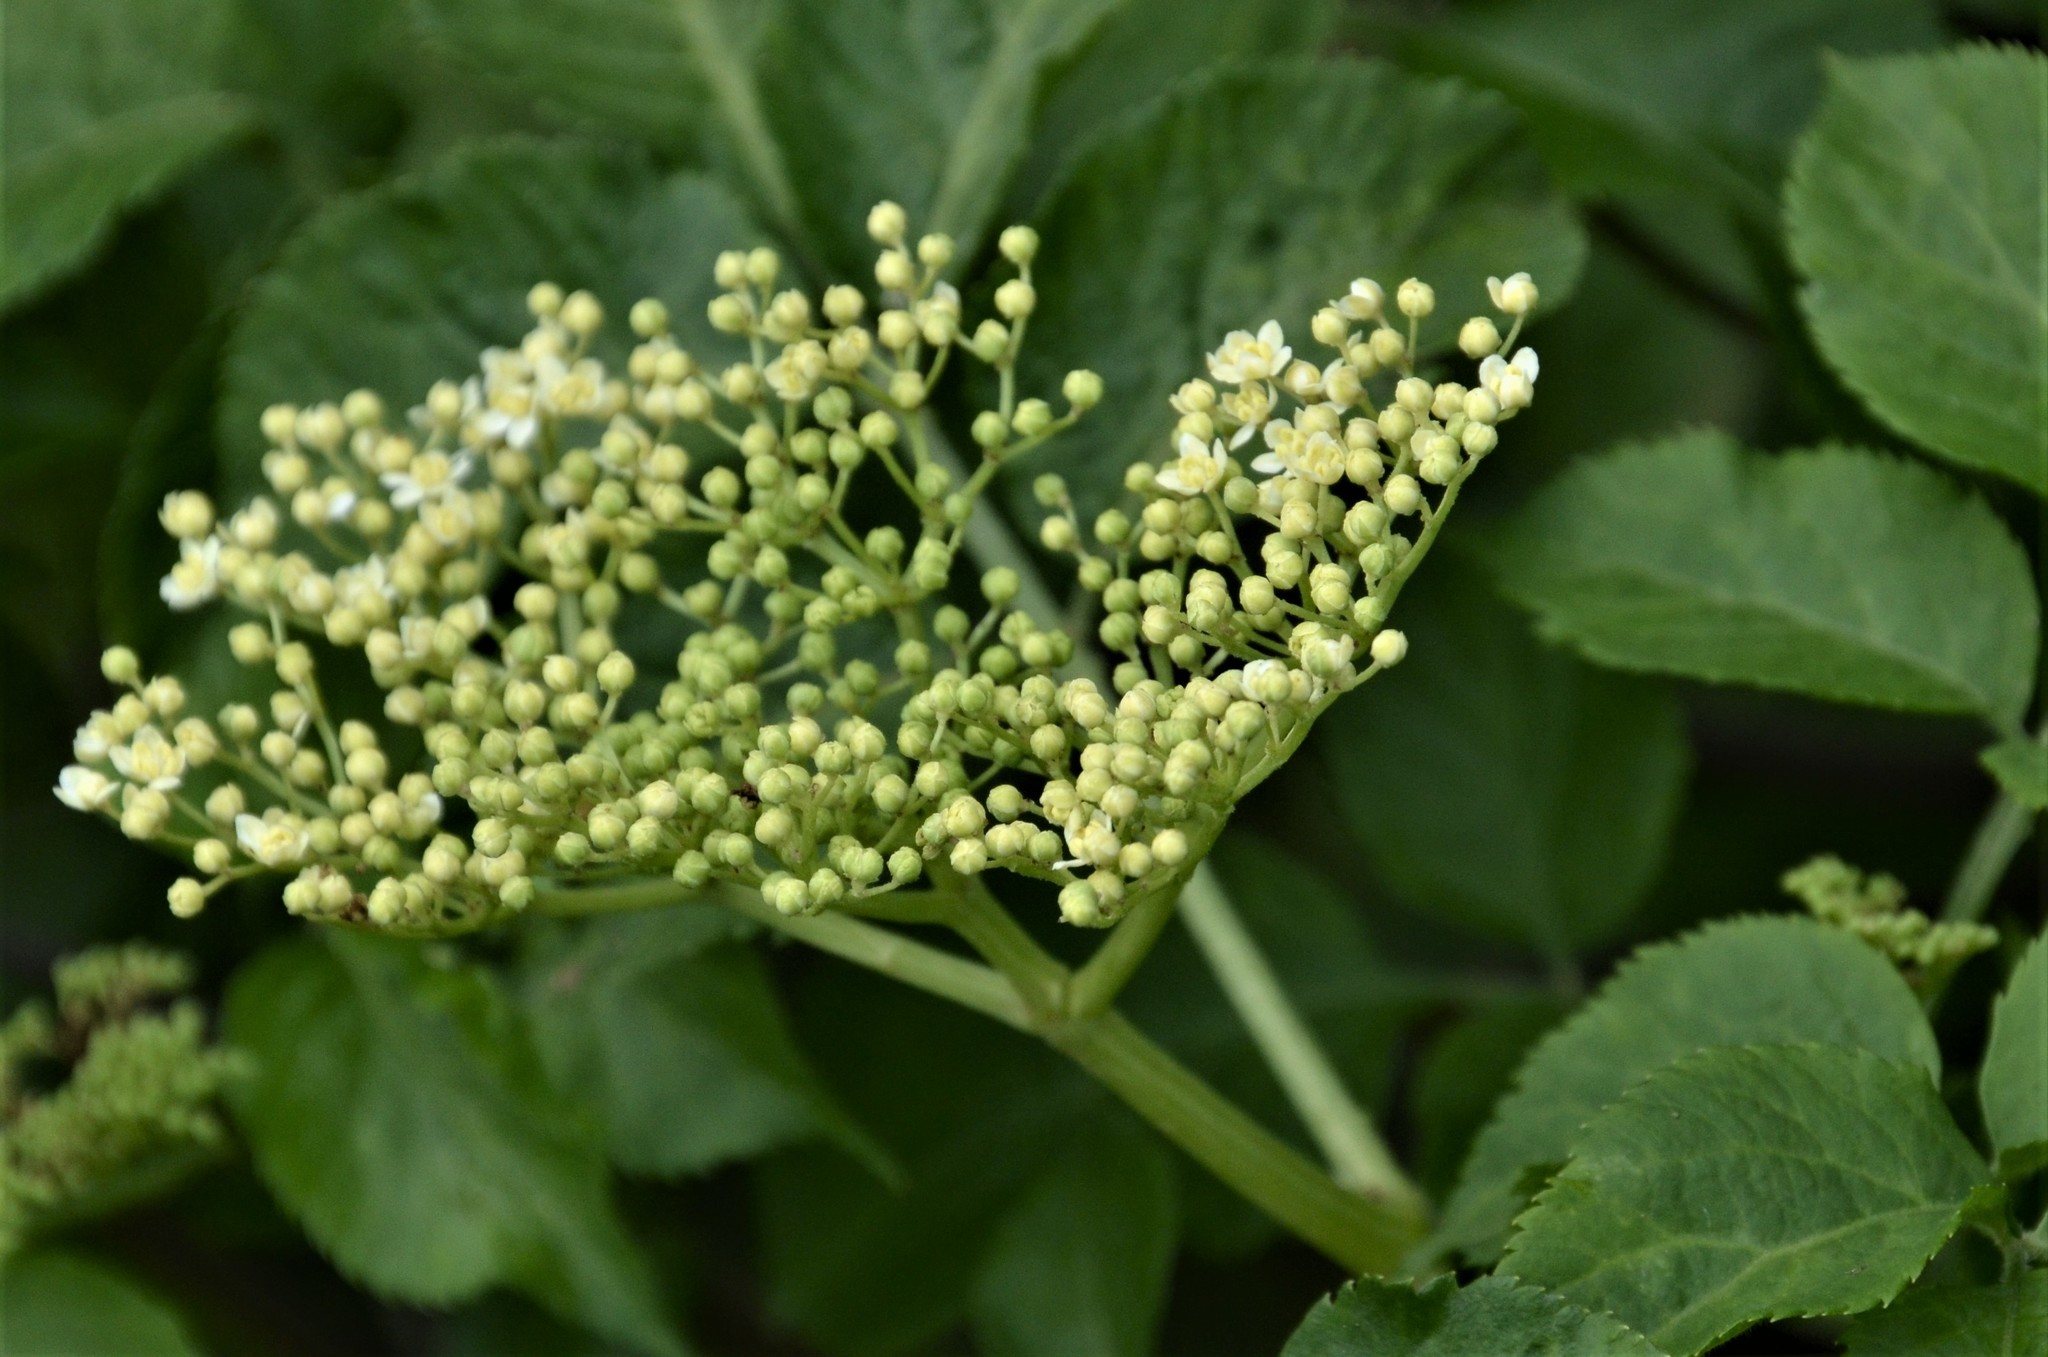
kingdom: Plantae
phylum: Tracheophyta
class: Magnoliopsida
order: Dipsacales
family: Viburnaceae
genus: Sambucus
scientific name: Sambucus nigra
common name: Elder
